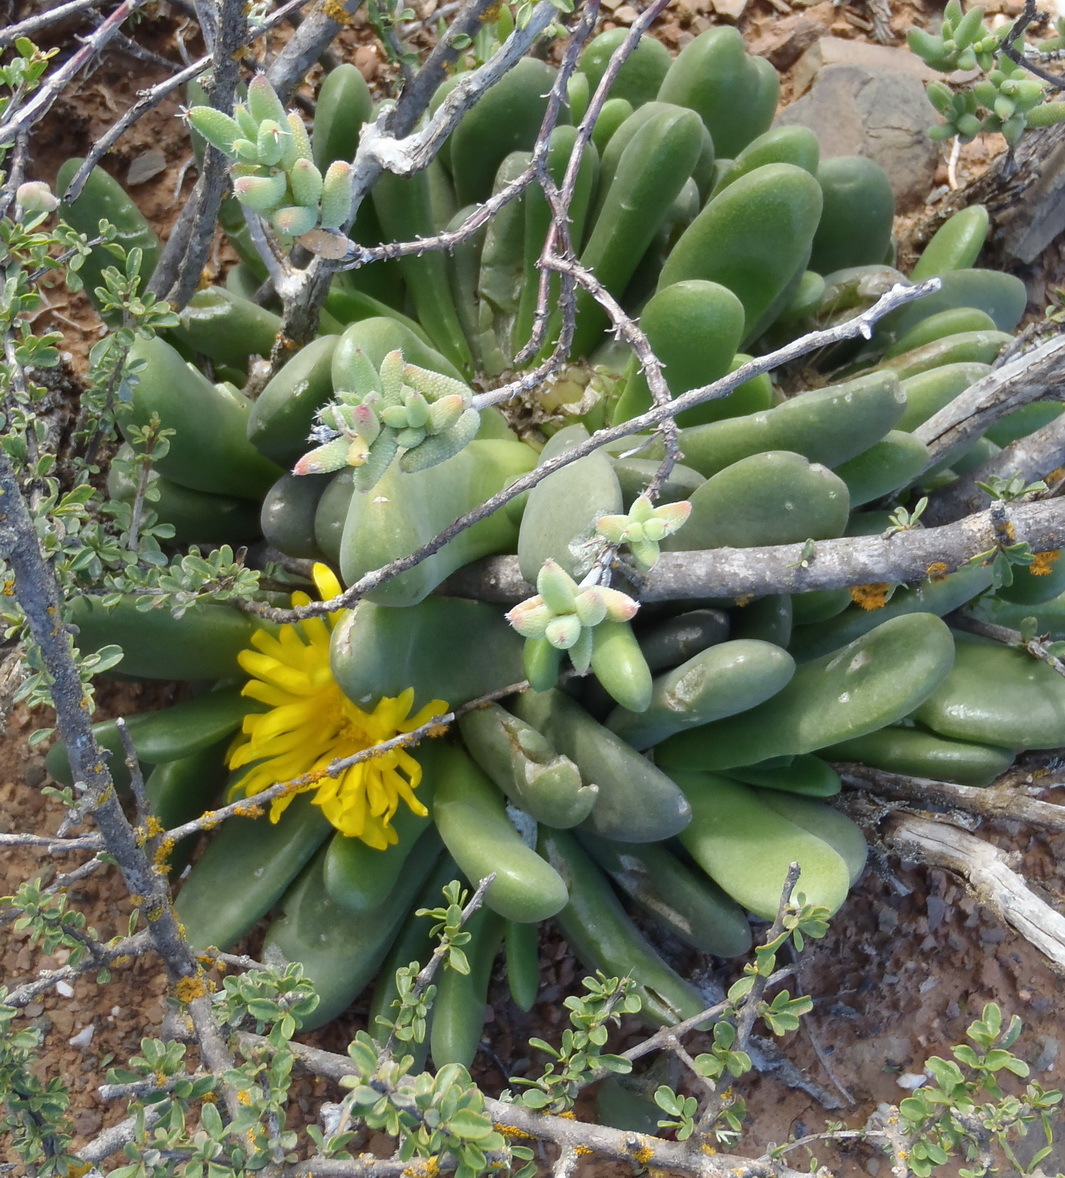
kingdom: Plantae
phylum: Tracheophyta
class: Magnoliopsida
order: Caryophyllales
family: Aizoaceae
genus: Glottiphyllum
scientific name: Glottiphyllum oligocarpum
